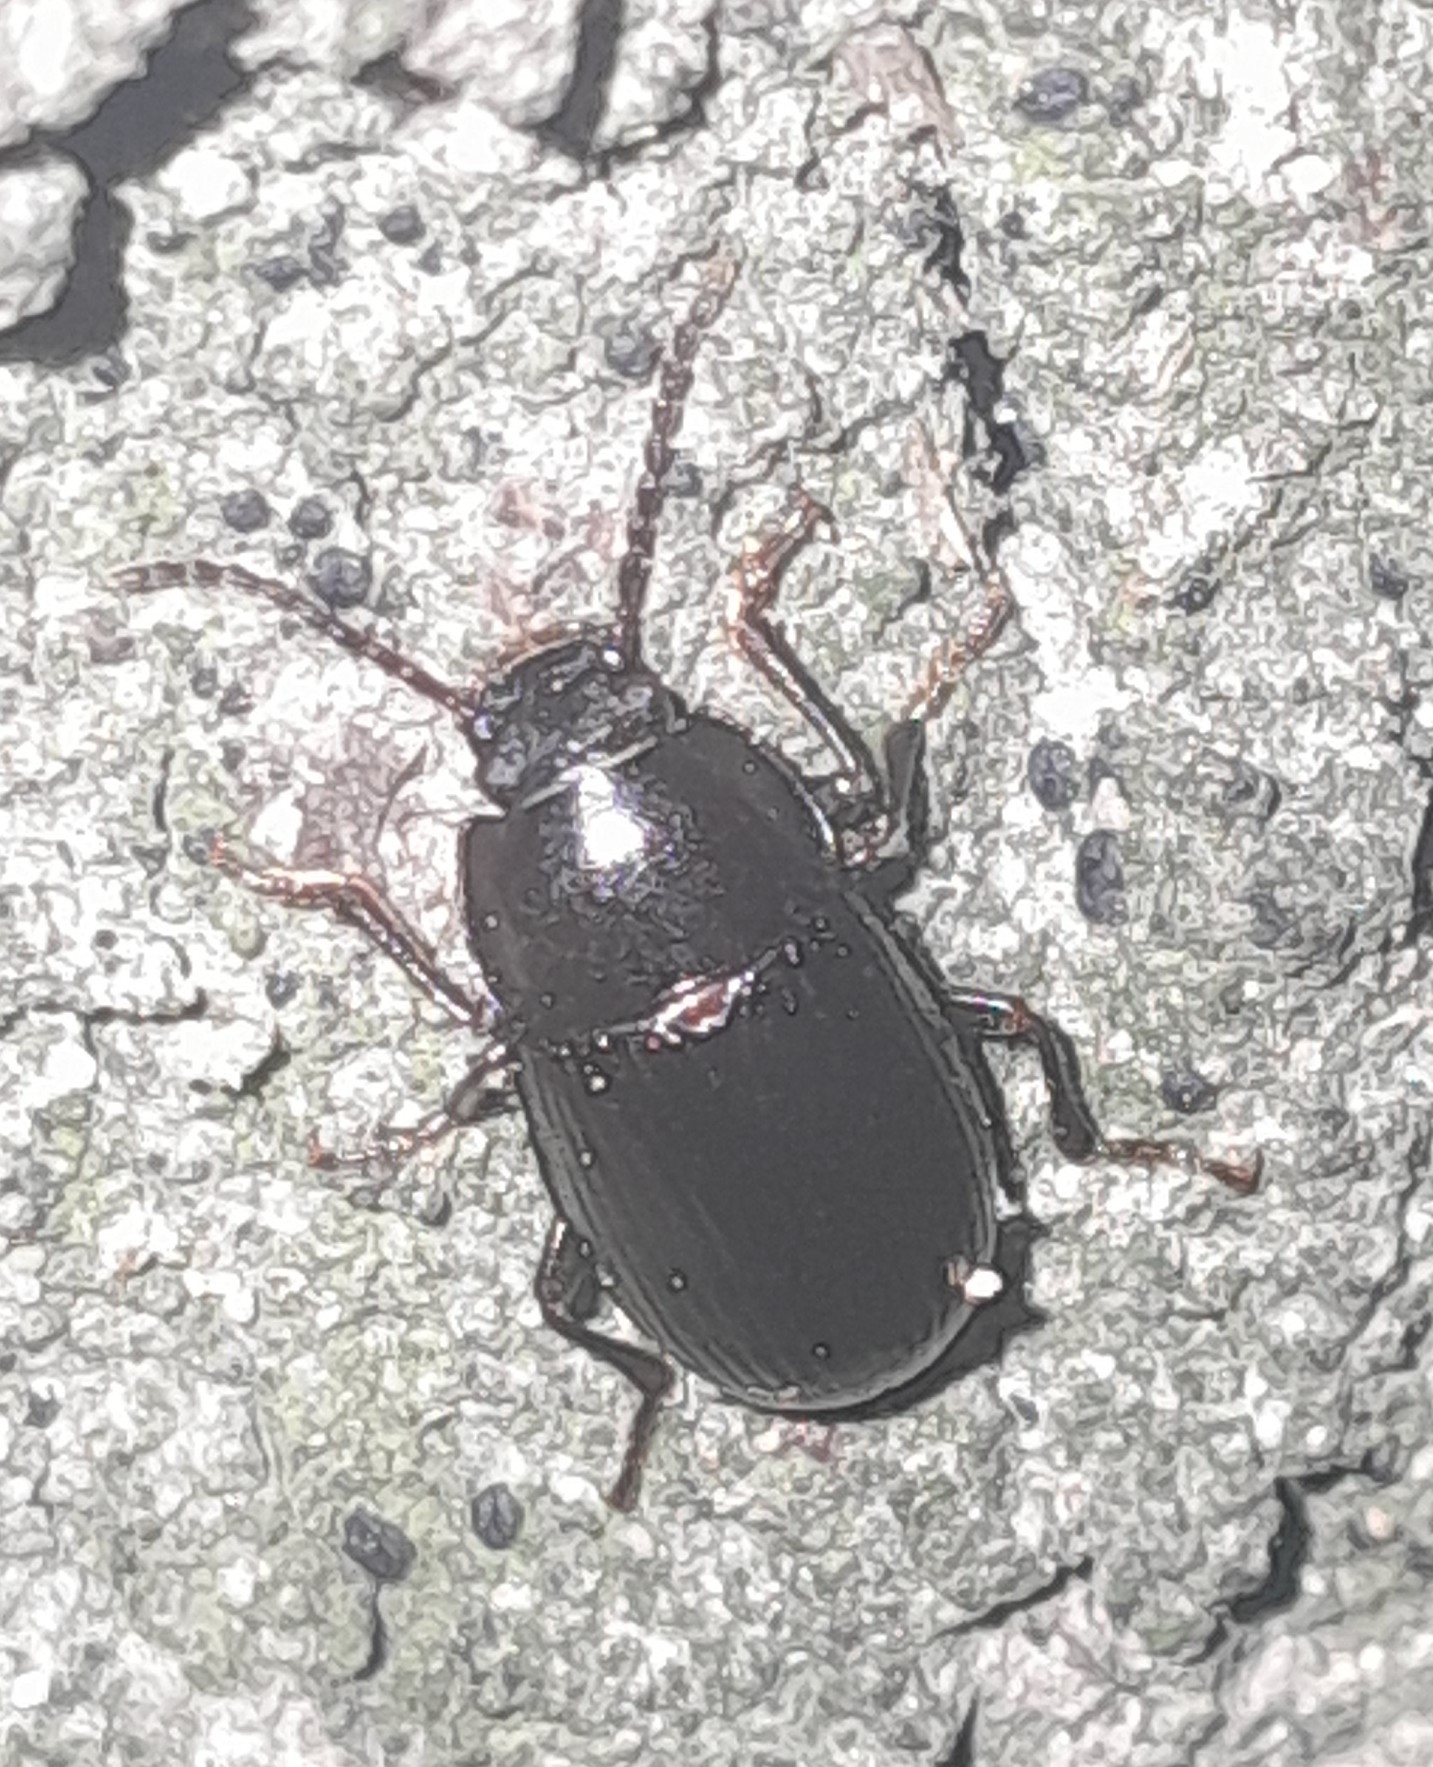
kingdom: Animalia
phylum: Arthropoda
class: Insecta
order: Coleoptera
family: Tenebrionidae
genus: Nalassus
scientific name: Nalassus dermestoides
